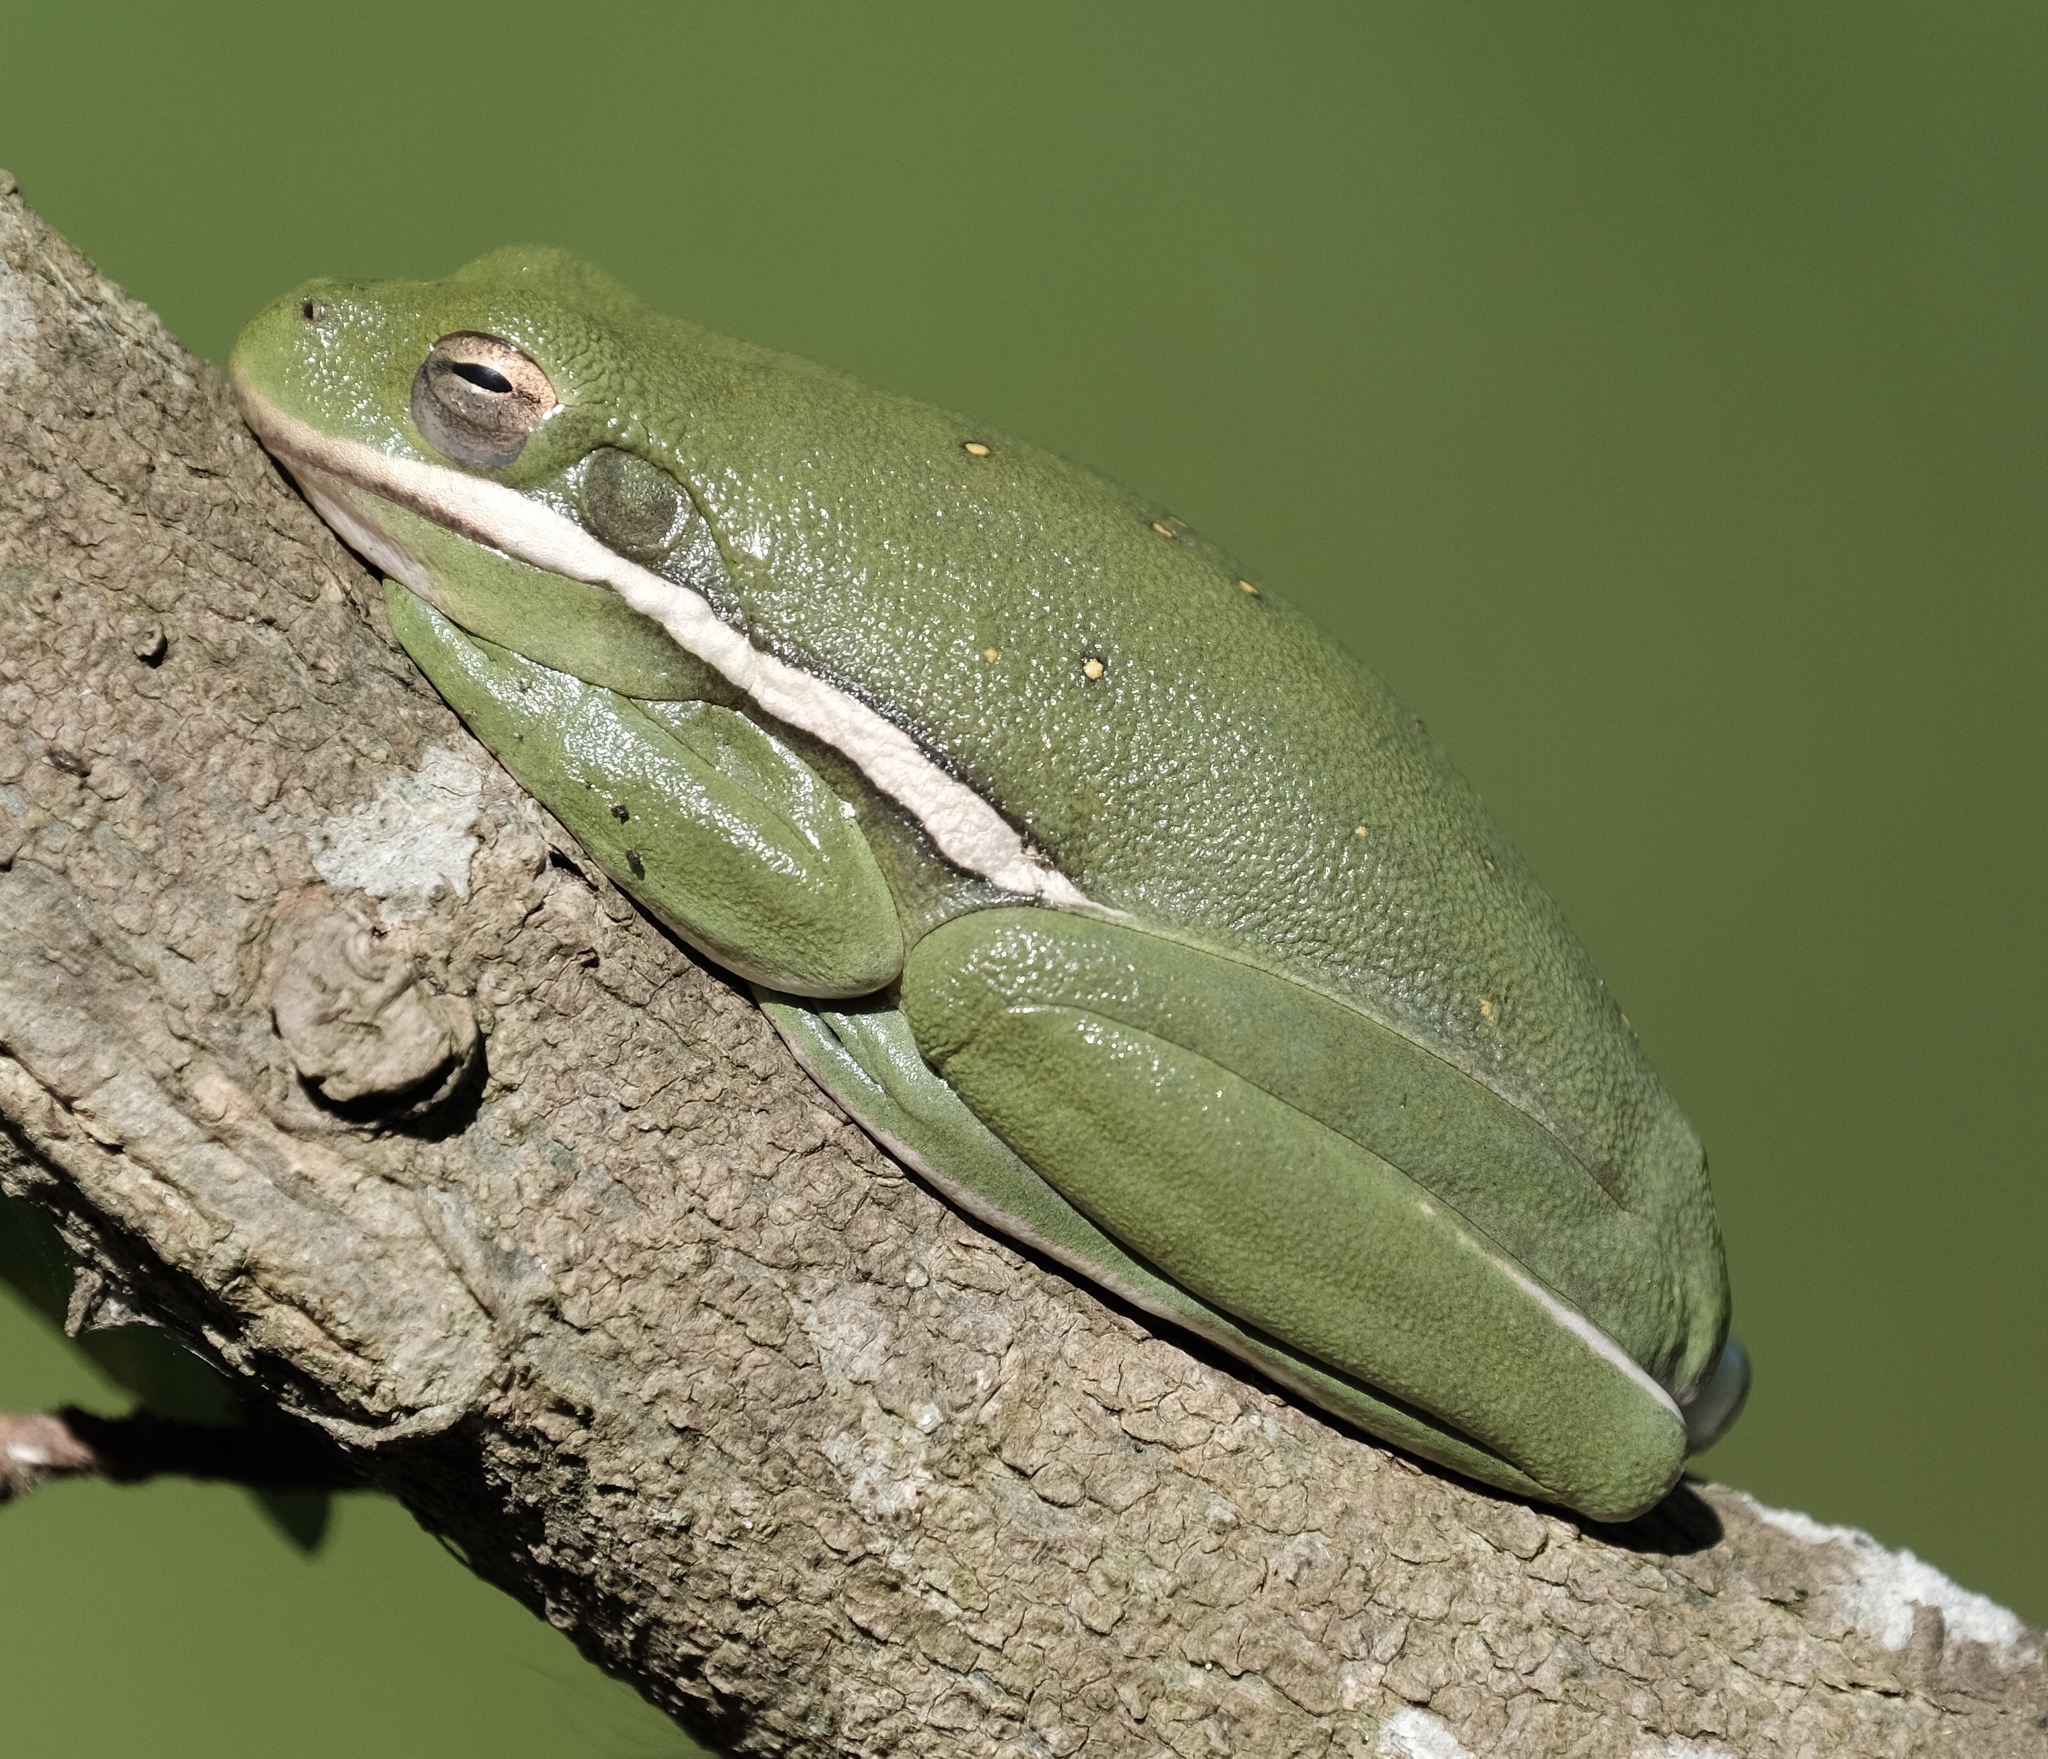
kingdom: Animalia
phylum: Chordata
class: Amphibia
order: Anura
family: Hylidae
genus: Dryophytes
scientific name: Dryophytes cinereus
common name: Green treefrog
